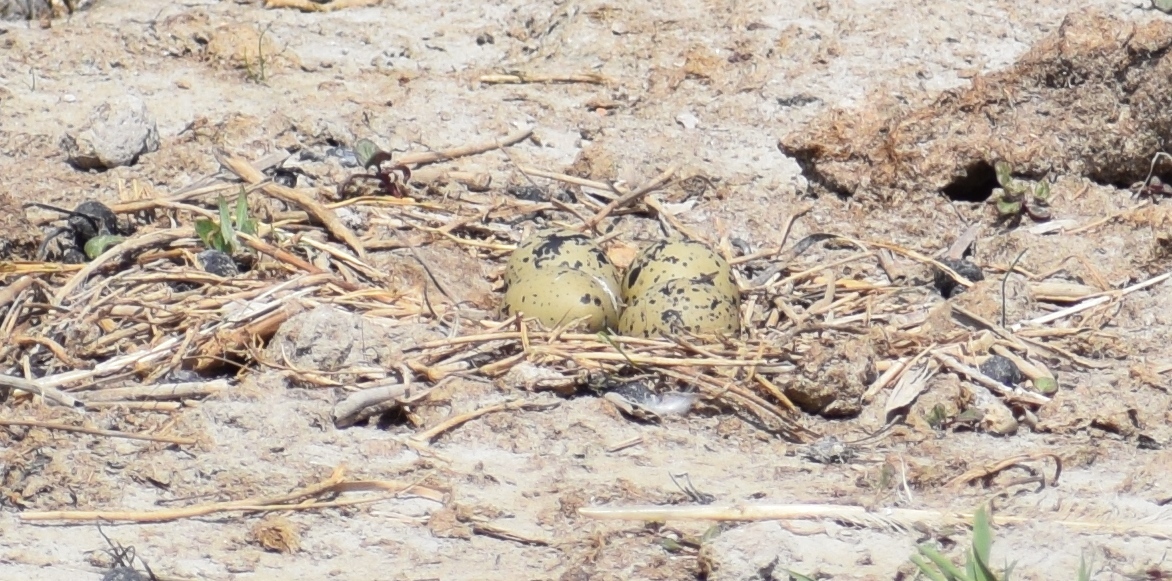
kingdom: Animalia
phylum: Chordata
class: Aves
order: Charadriiformes
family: Recurvirostridae
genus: Recurvirostra
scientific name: Recurvirostra avosetta
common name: Pied avocet
